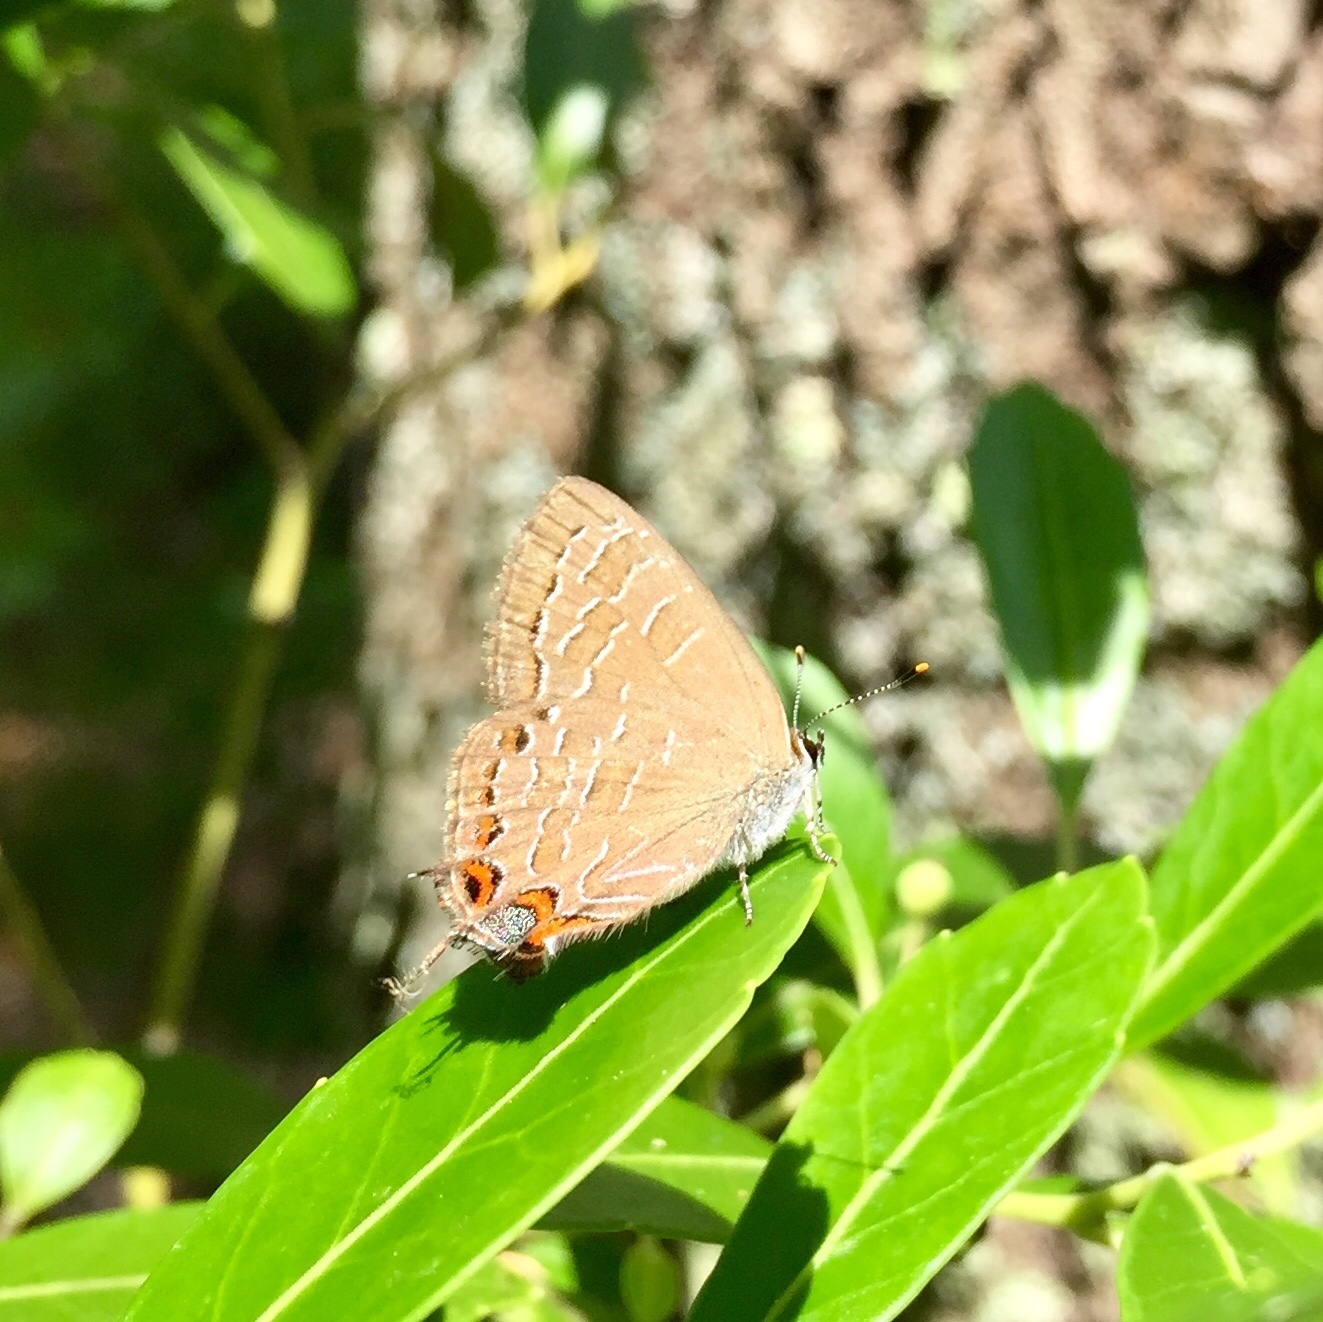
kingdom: Animalia
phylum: Arthropoda
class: Insecta
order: Lepidoptera
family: Lycaenidae
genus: Satyrium
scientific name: Satyrium liparops
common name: Striped hairstreak
